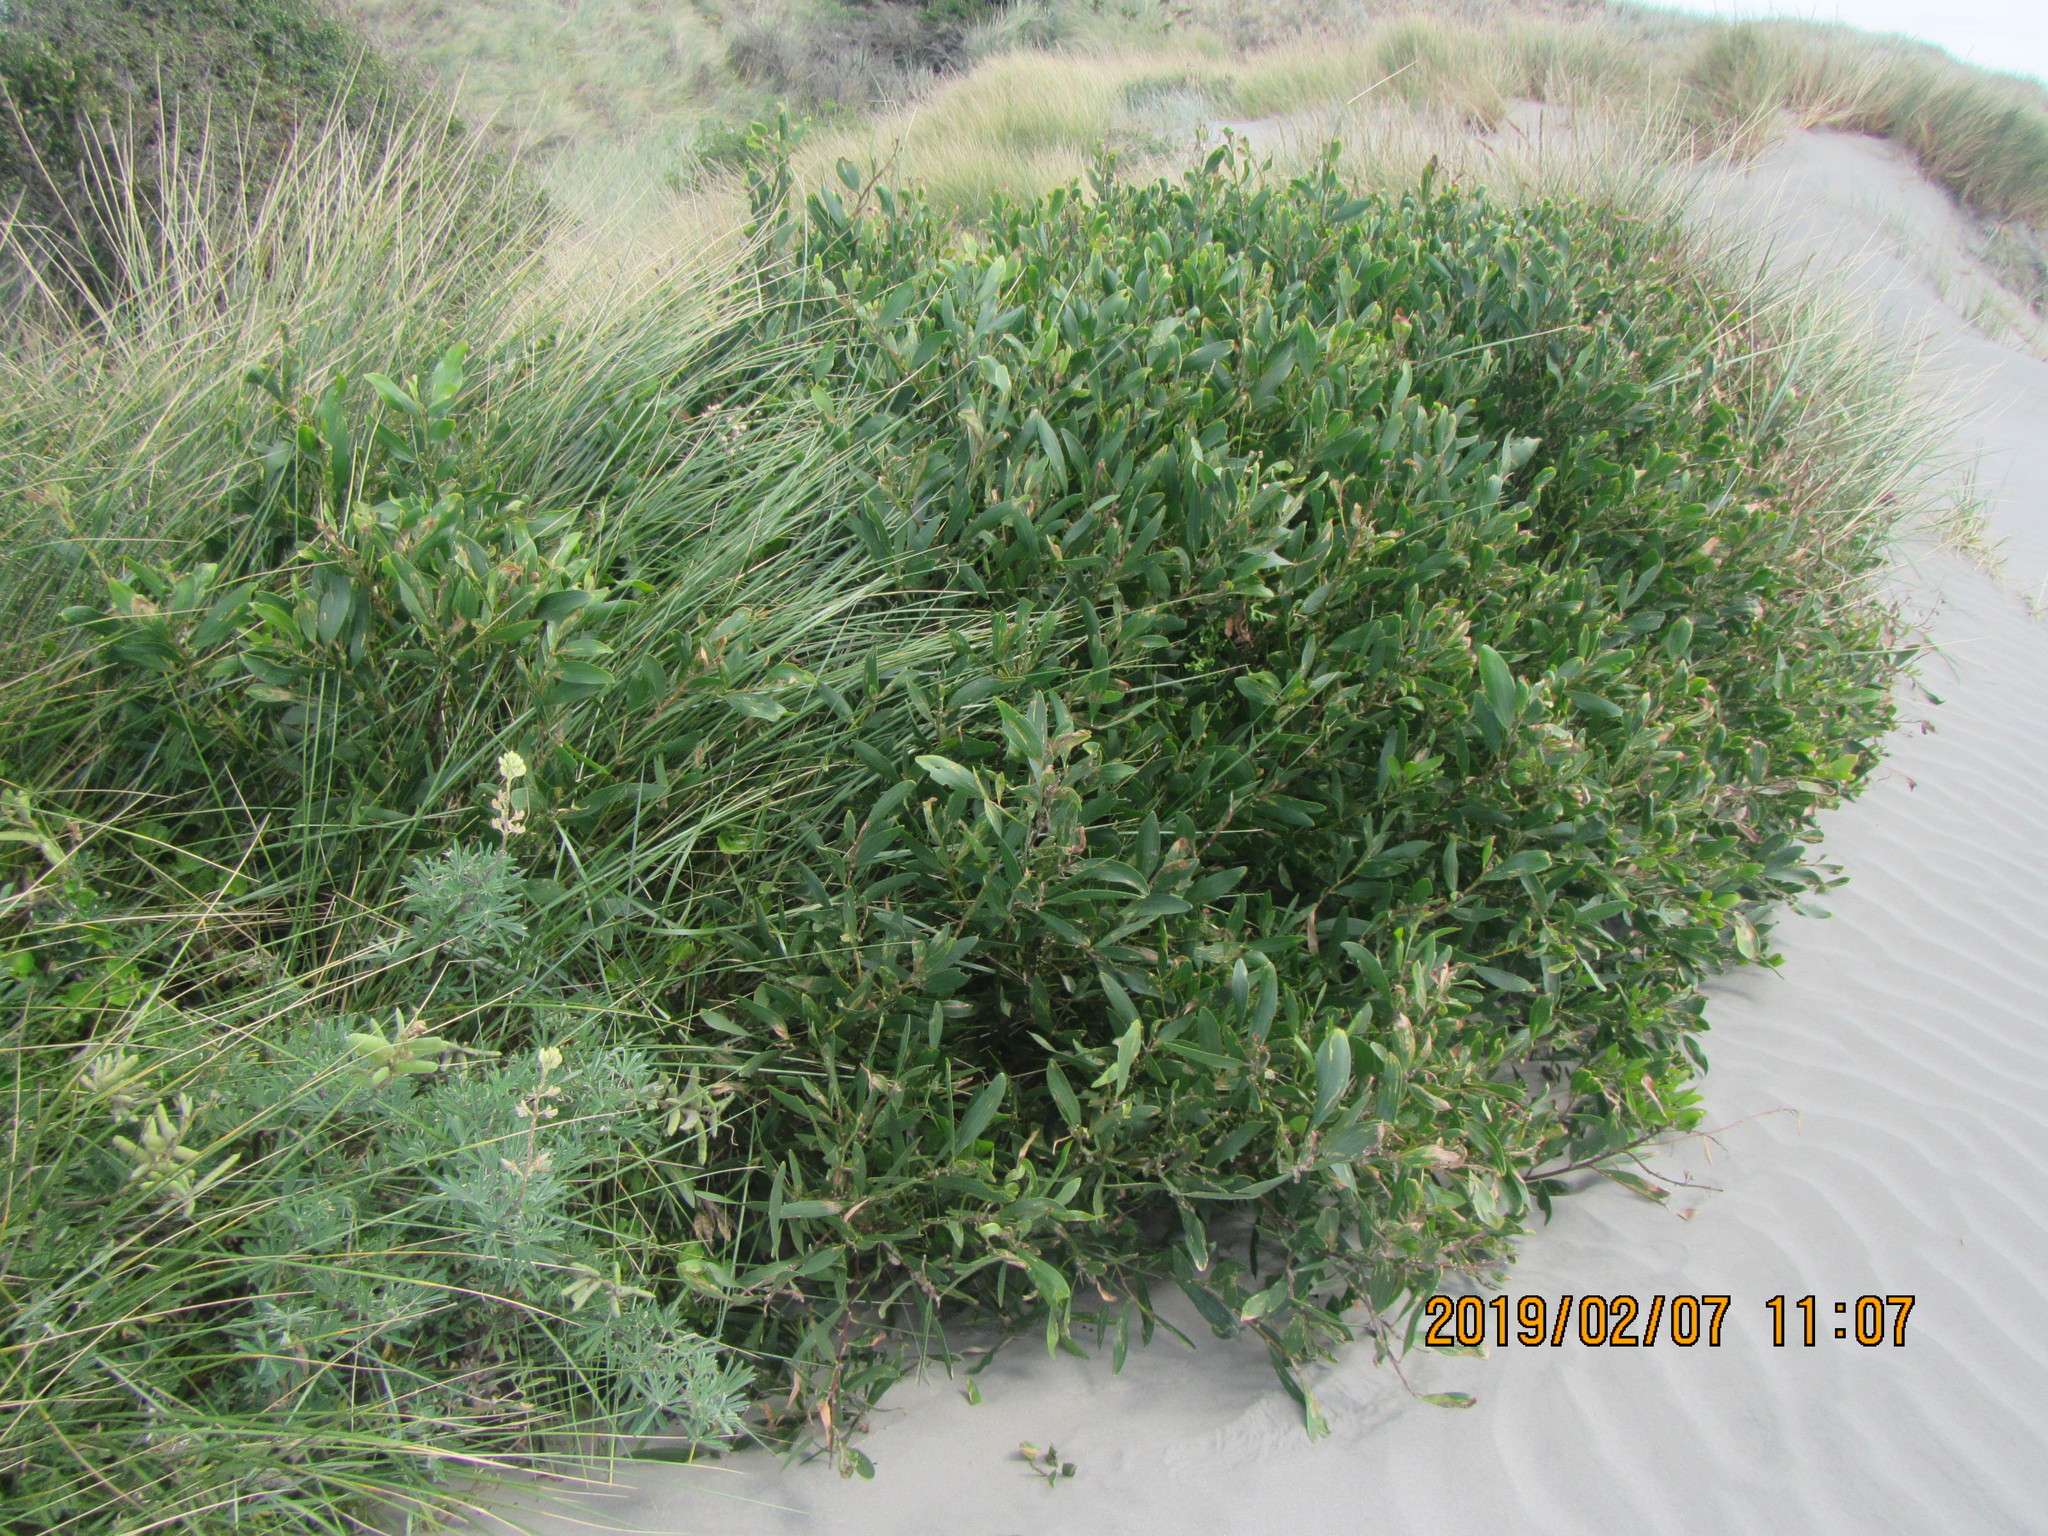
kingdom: Plantae
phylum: Tracheophyta
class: Magnoliopsida
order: Fabales
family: Fabaceae
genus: Acacia
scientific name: Acacia longifolia
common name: Sydney golden wattle
